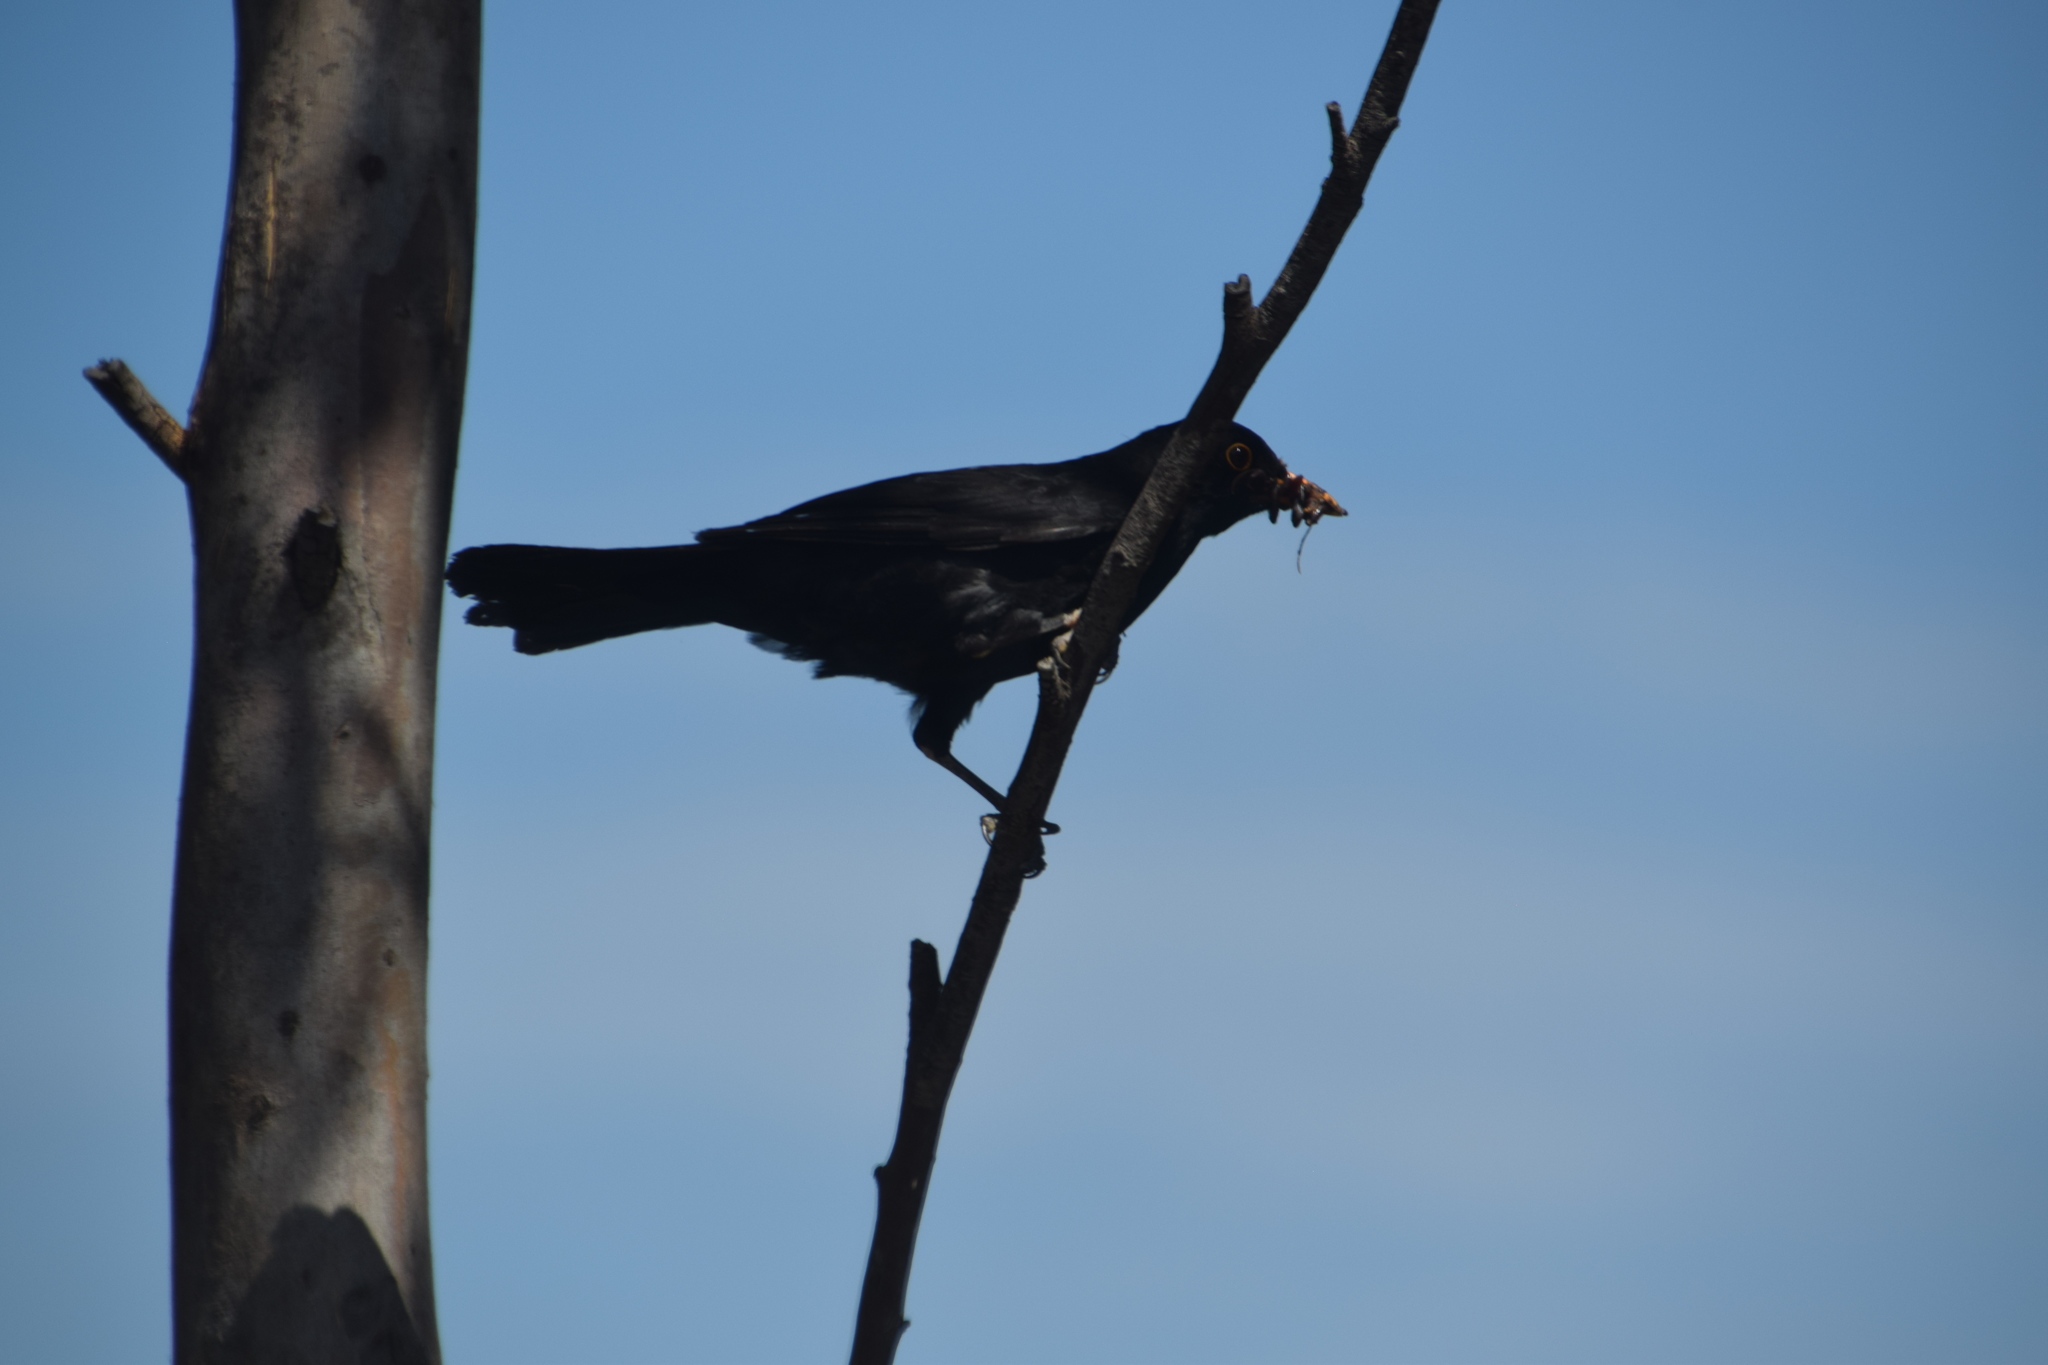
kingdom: Animalia
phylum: Chordata
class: Aves
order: Passeriformes
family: Turdidae
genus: Turdus
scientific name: Turdus merula
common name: Common blackbird
